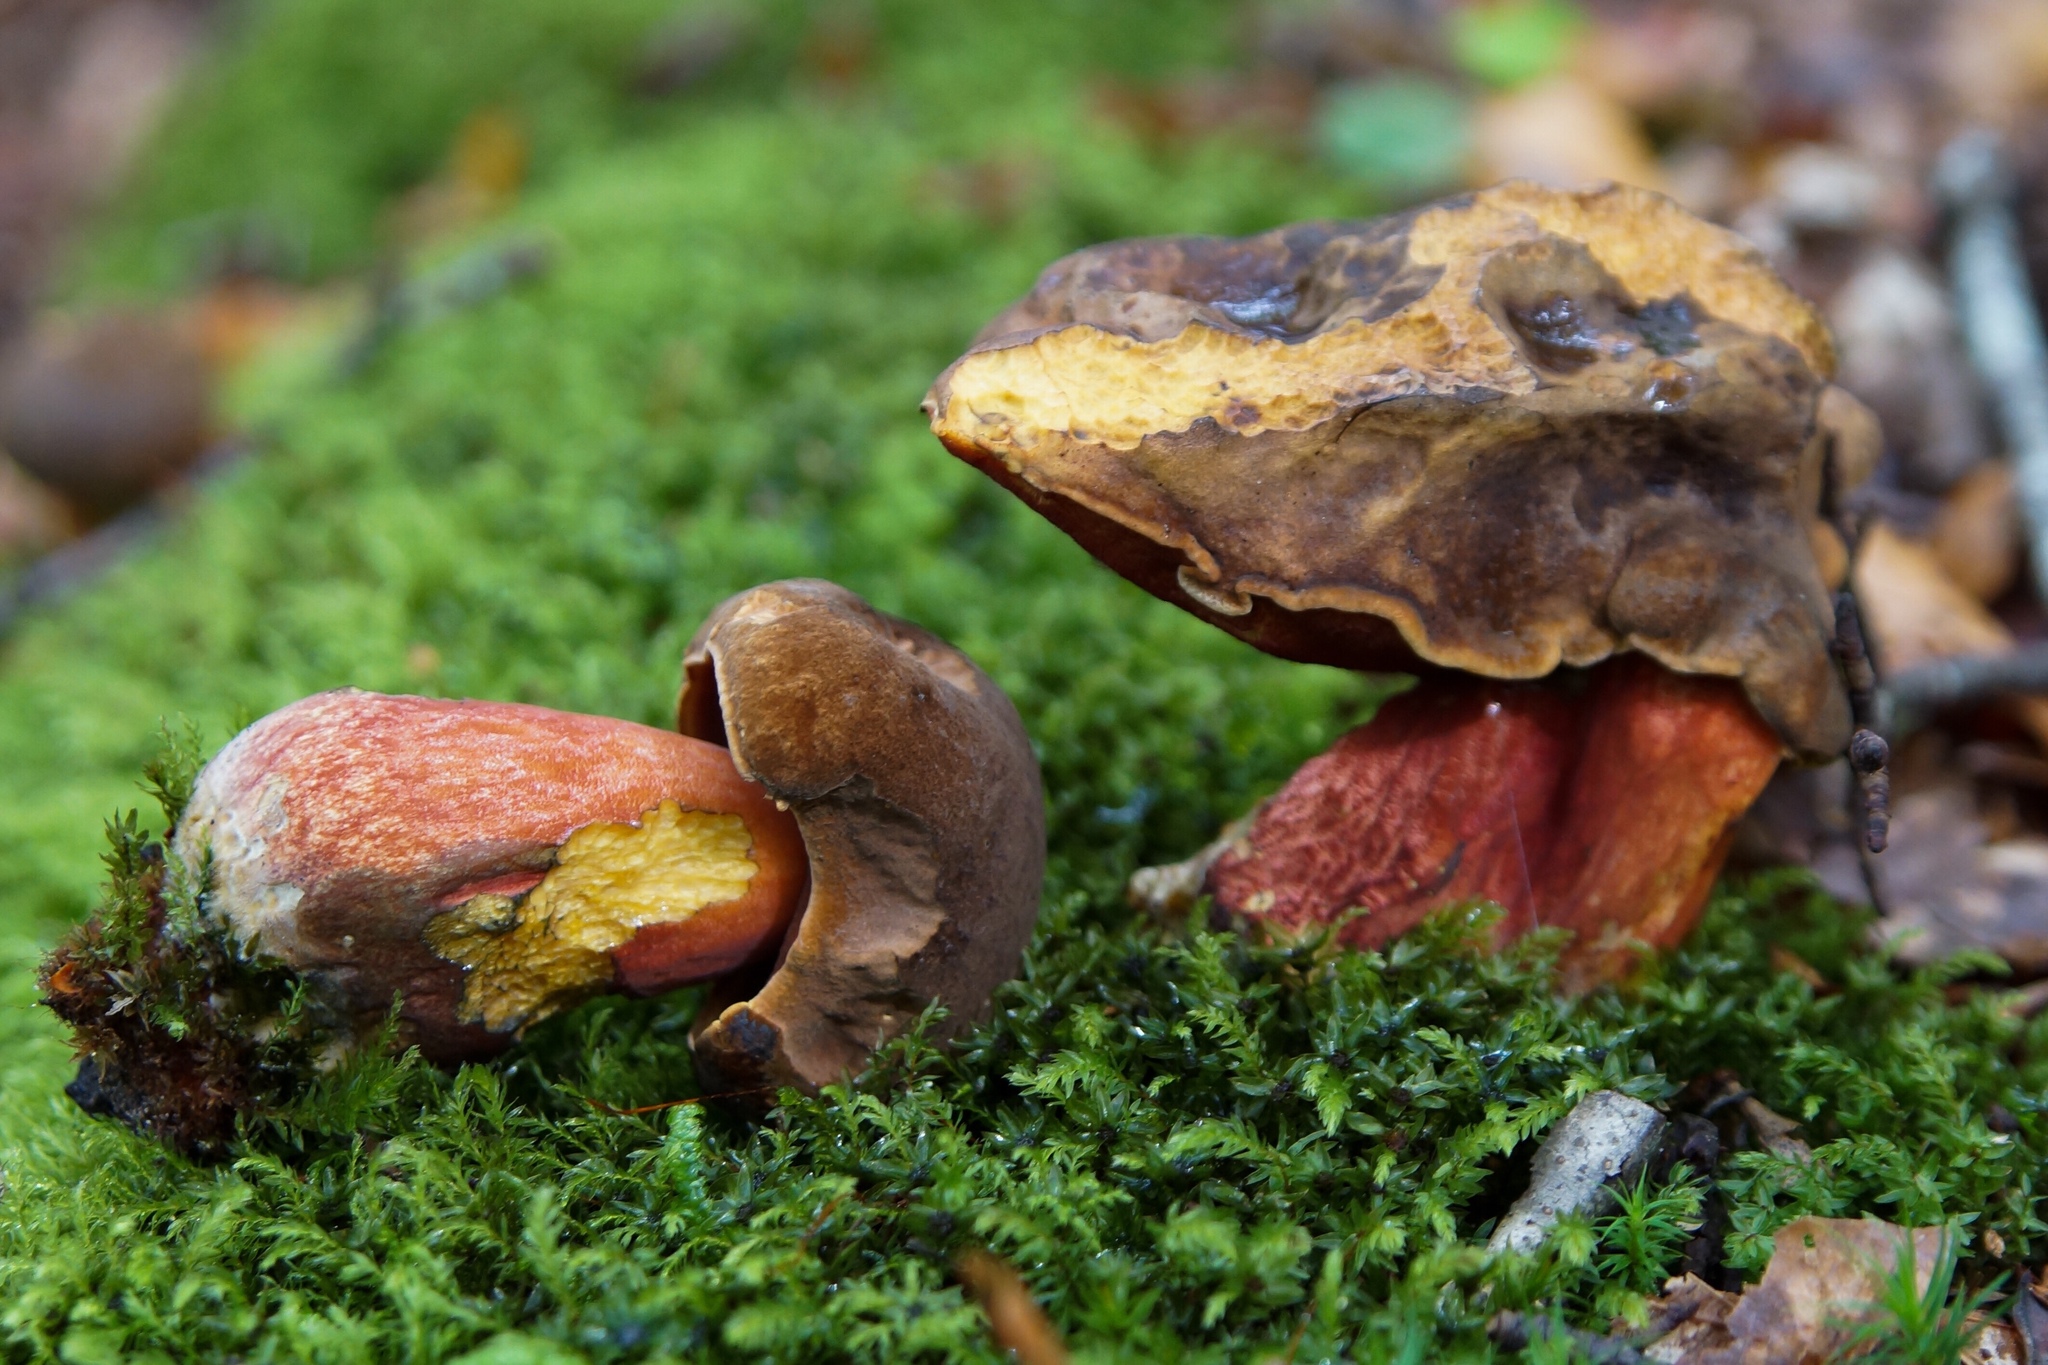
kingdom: Fungi
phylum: Basidiomycota
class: Agaricomycetes
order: Boletales
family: Boletaceae
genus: Neoboletus
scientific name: Neoboletus luridiformis
